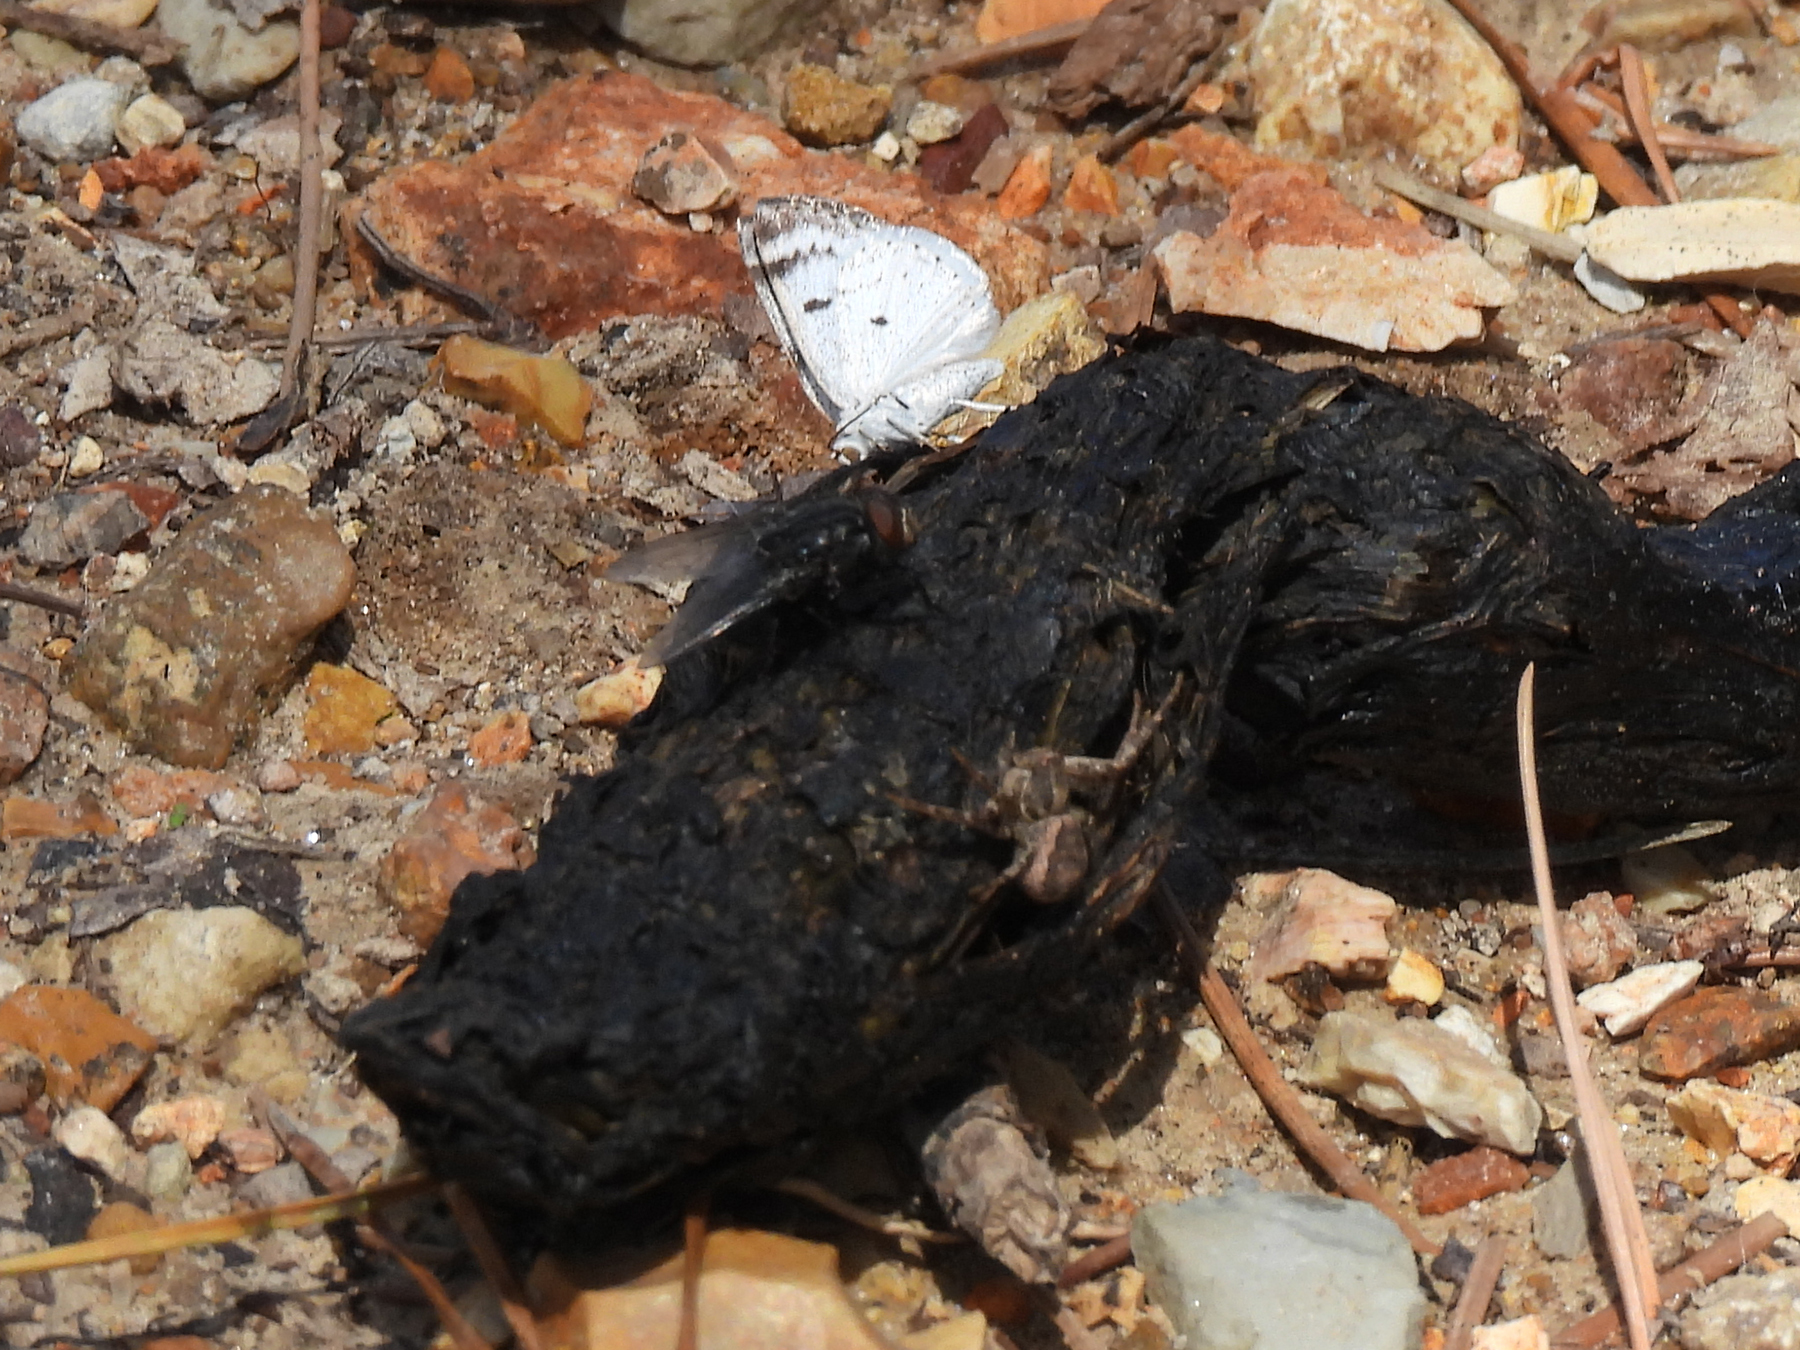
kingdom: Animalia
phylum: Arthropoda
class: Insecta
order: Lepidoptera
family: Geometridae
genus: Lomographa
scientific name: Lomographa semiclarata
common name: Bluish spring moth
